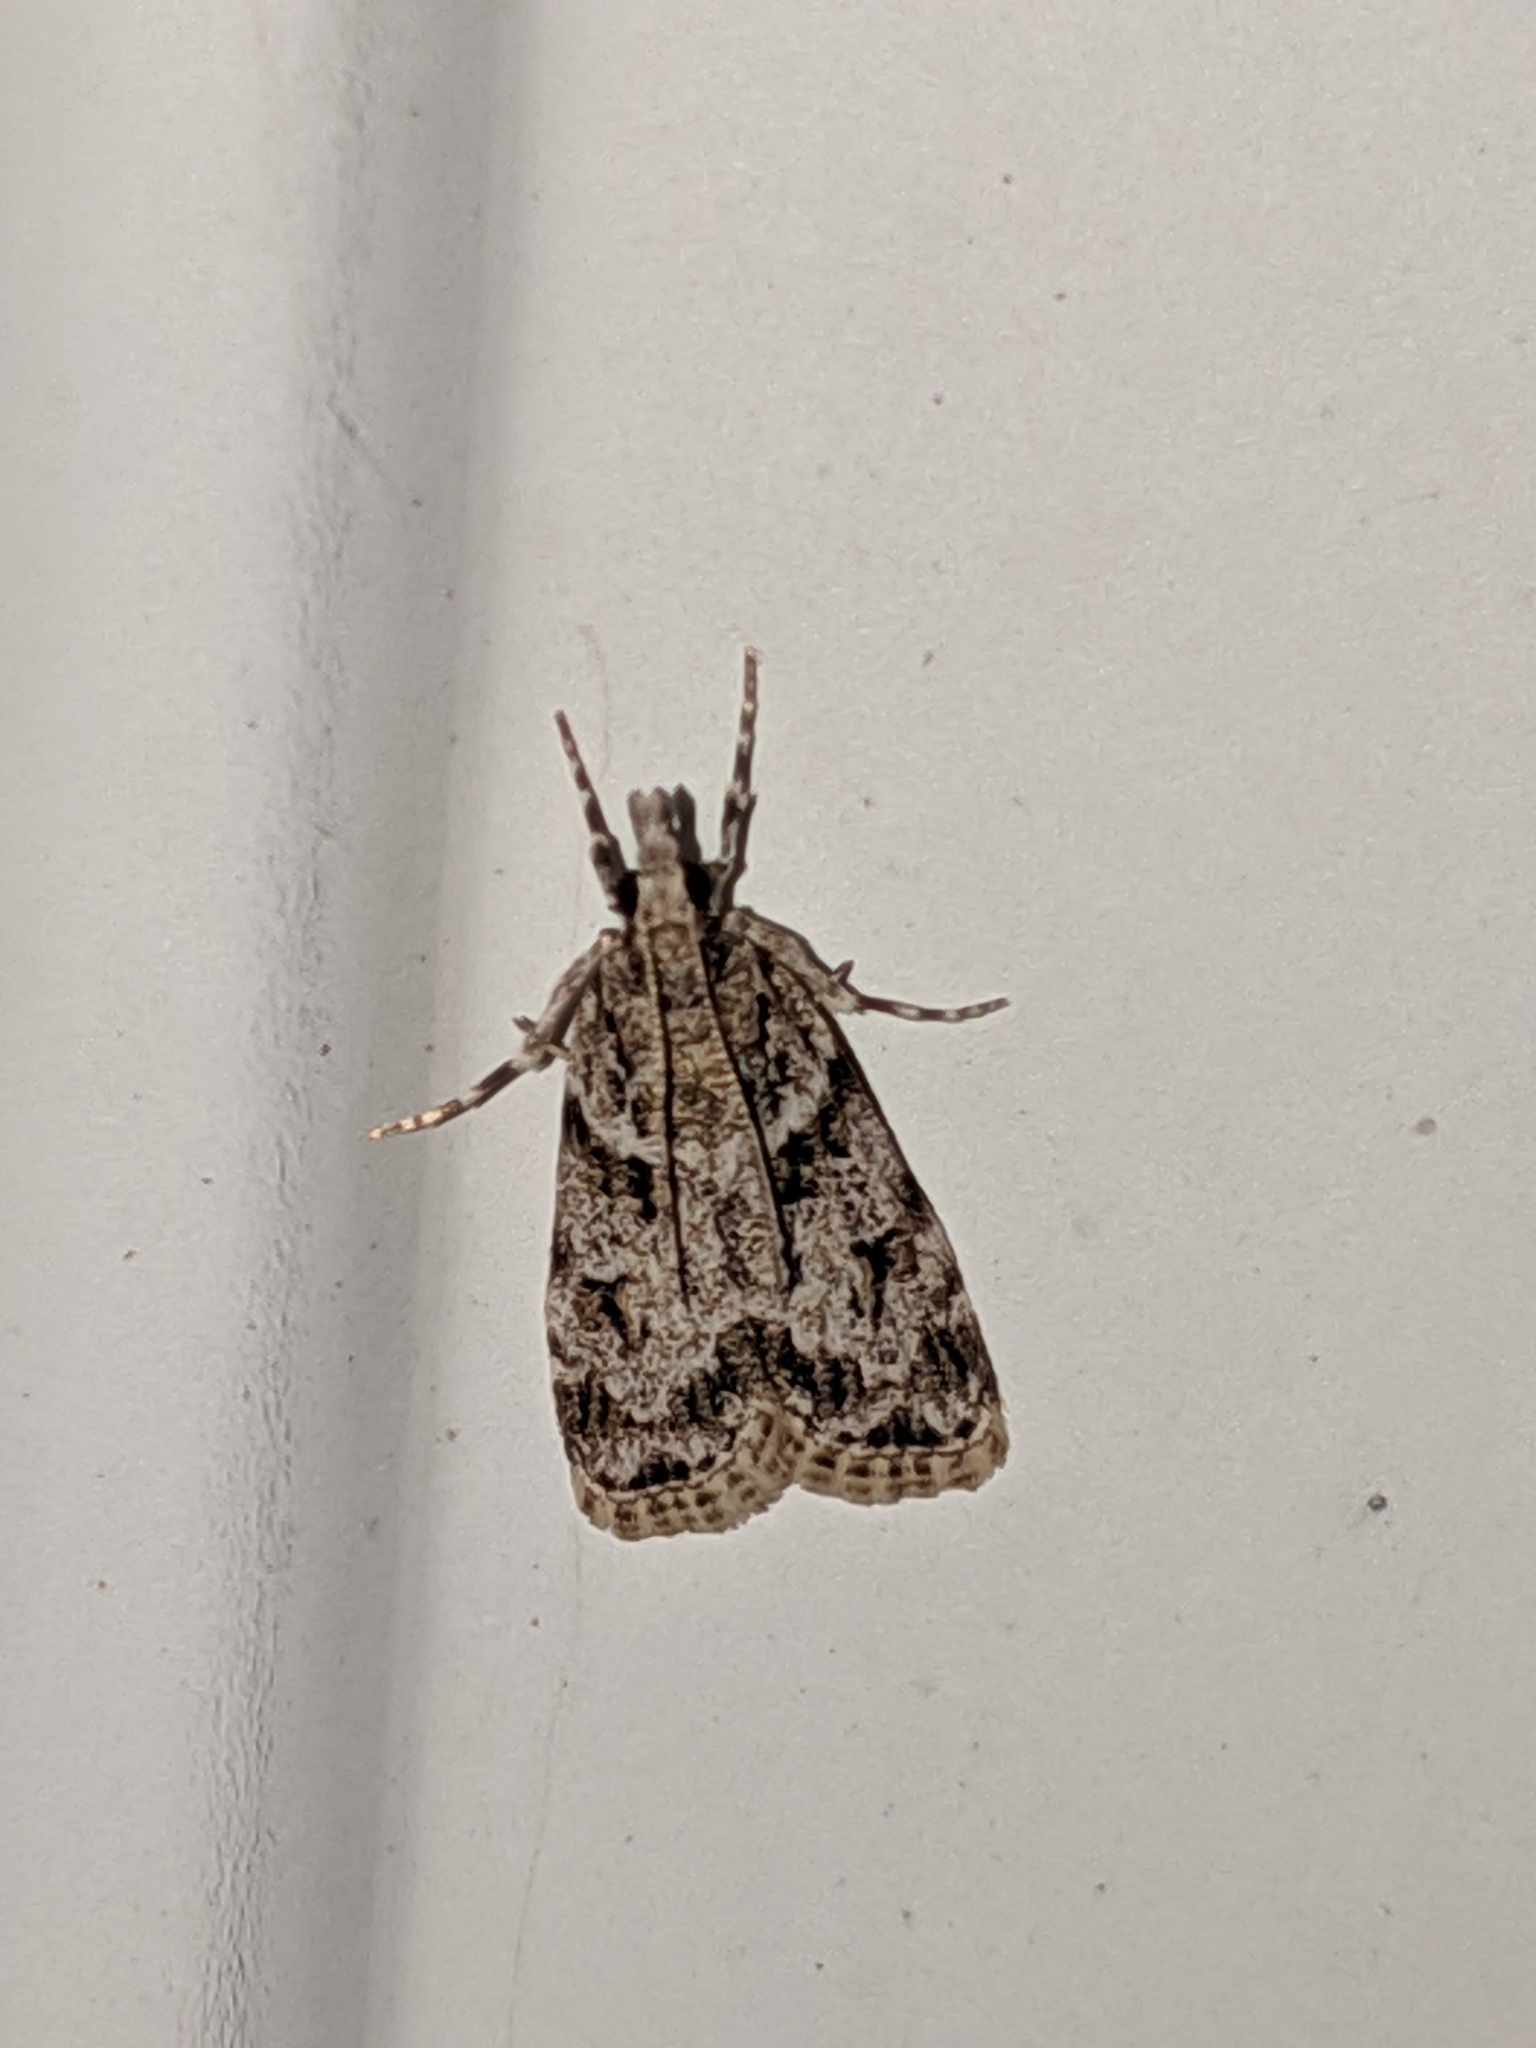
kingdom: Animalia
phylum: Arthropoda
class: Insecta
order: Lepidoptera
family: Crambidae
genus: Scoparia
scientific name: Scoparia biplagialis
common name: Double-striped scoparia moth
